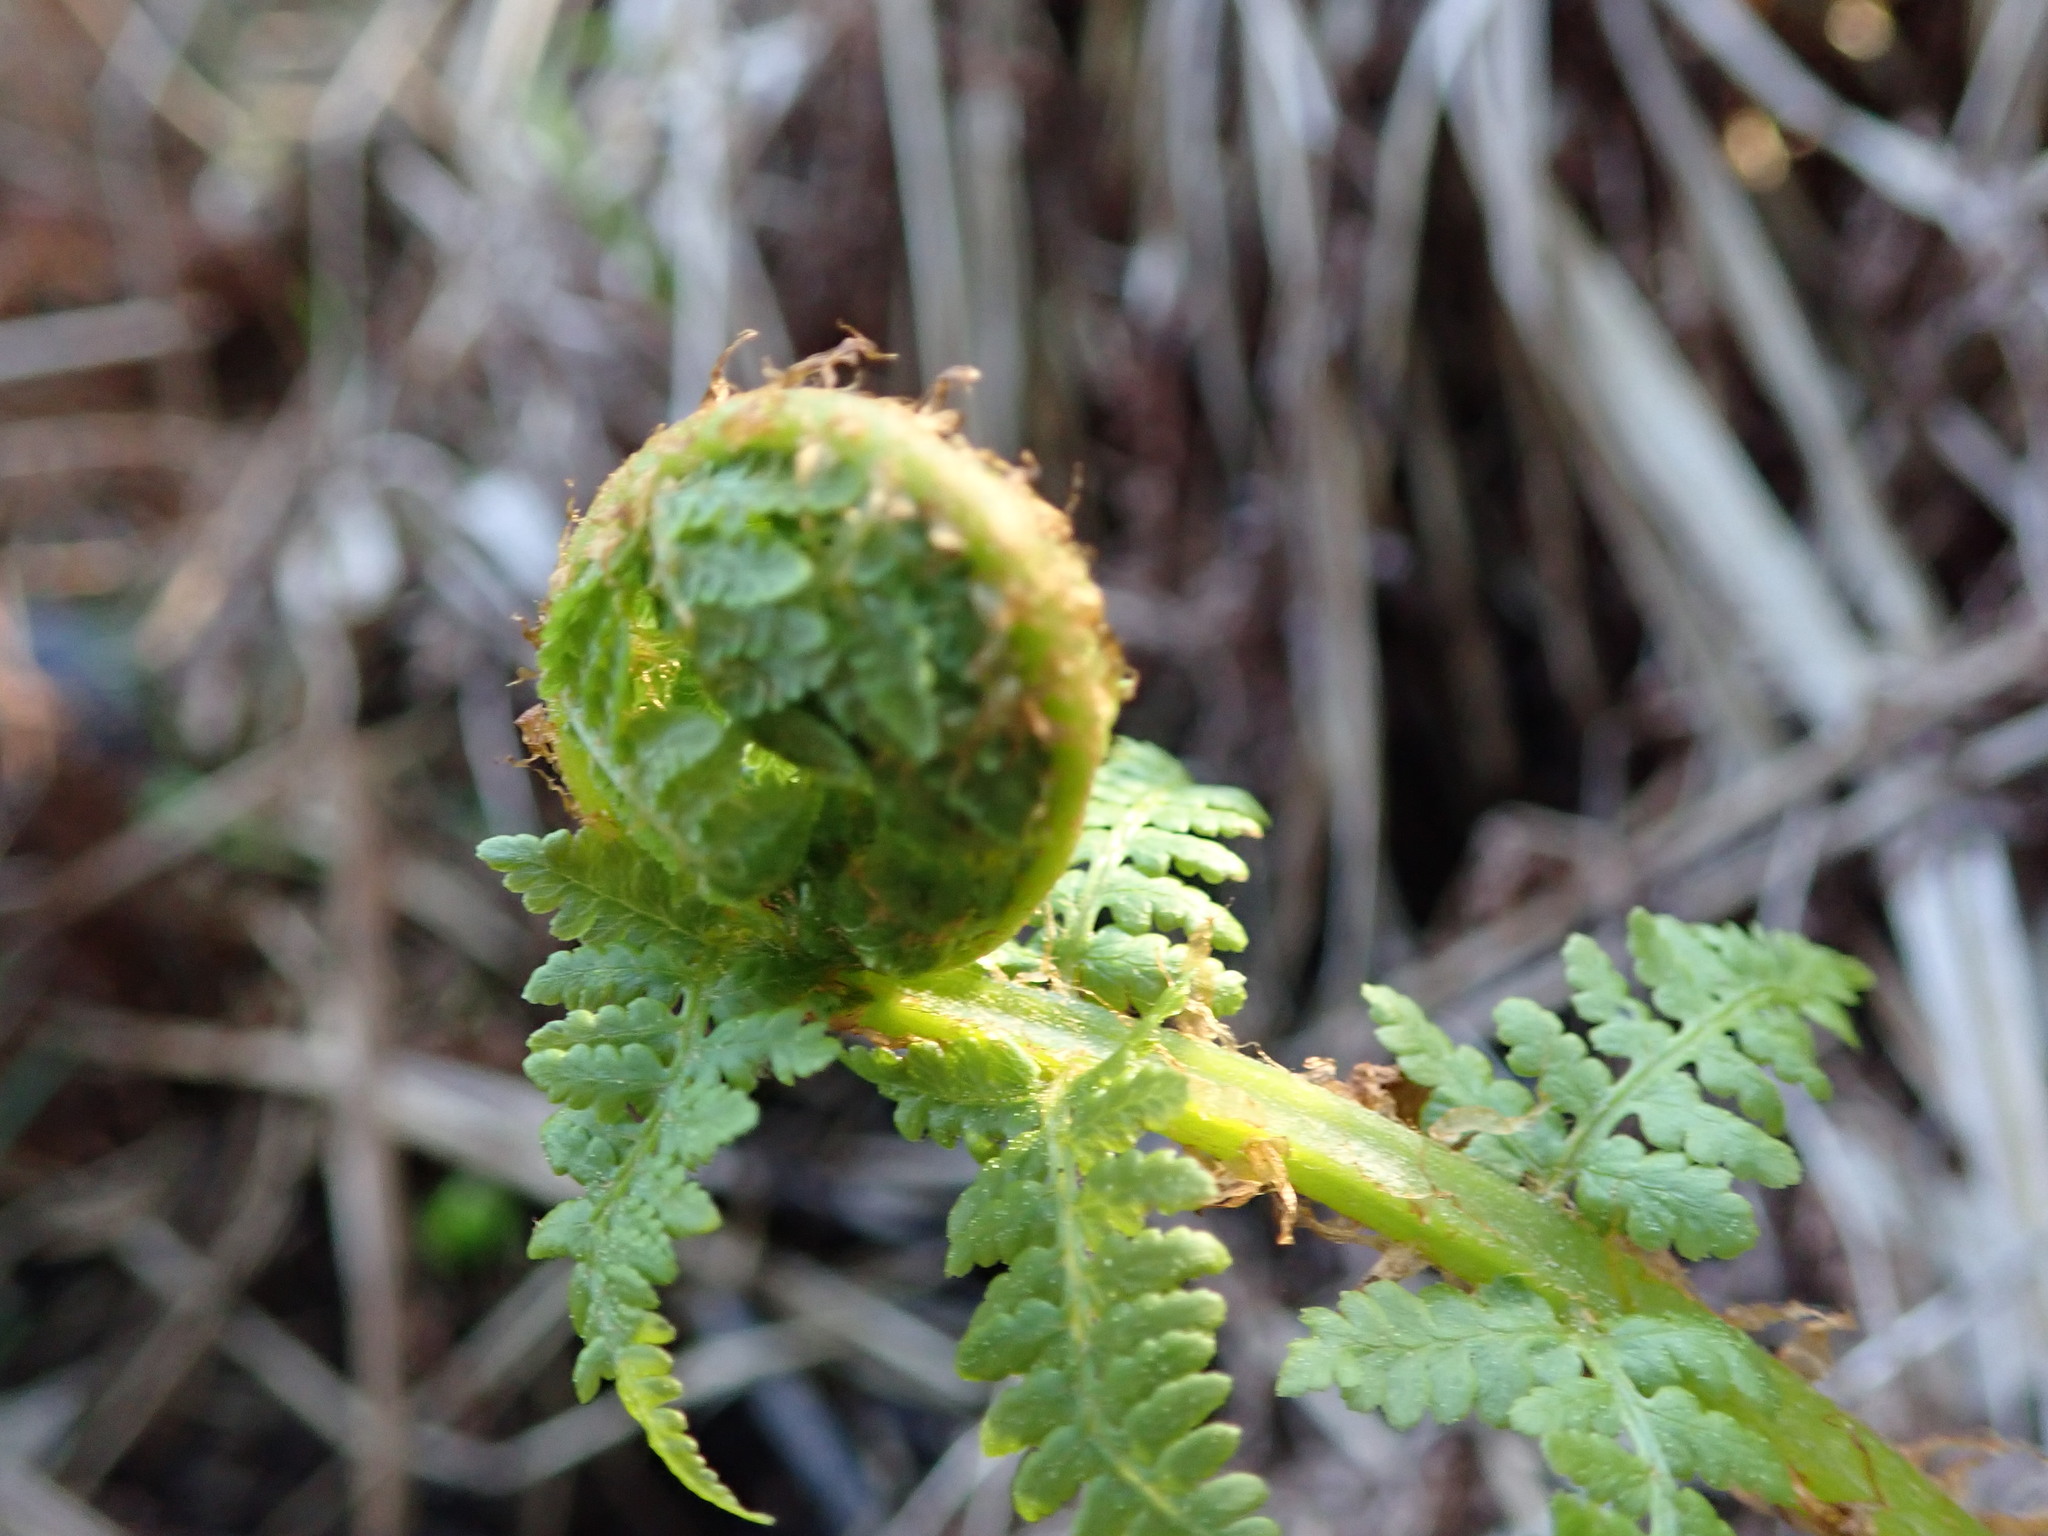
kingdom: Plantae
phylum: Tracheophyta
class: Polypodiopsida
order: Polypodiales
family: Athyriaceae
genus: Athyrium
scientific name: Athyrium filix-femina
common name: Lady fern
